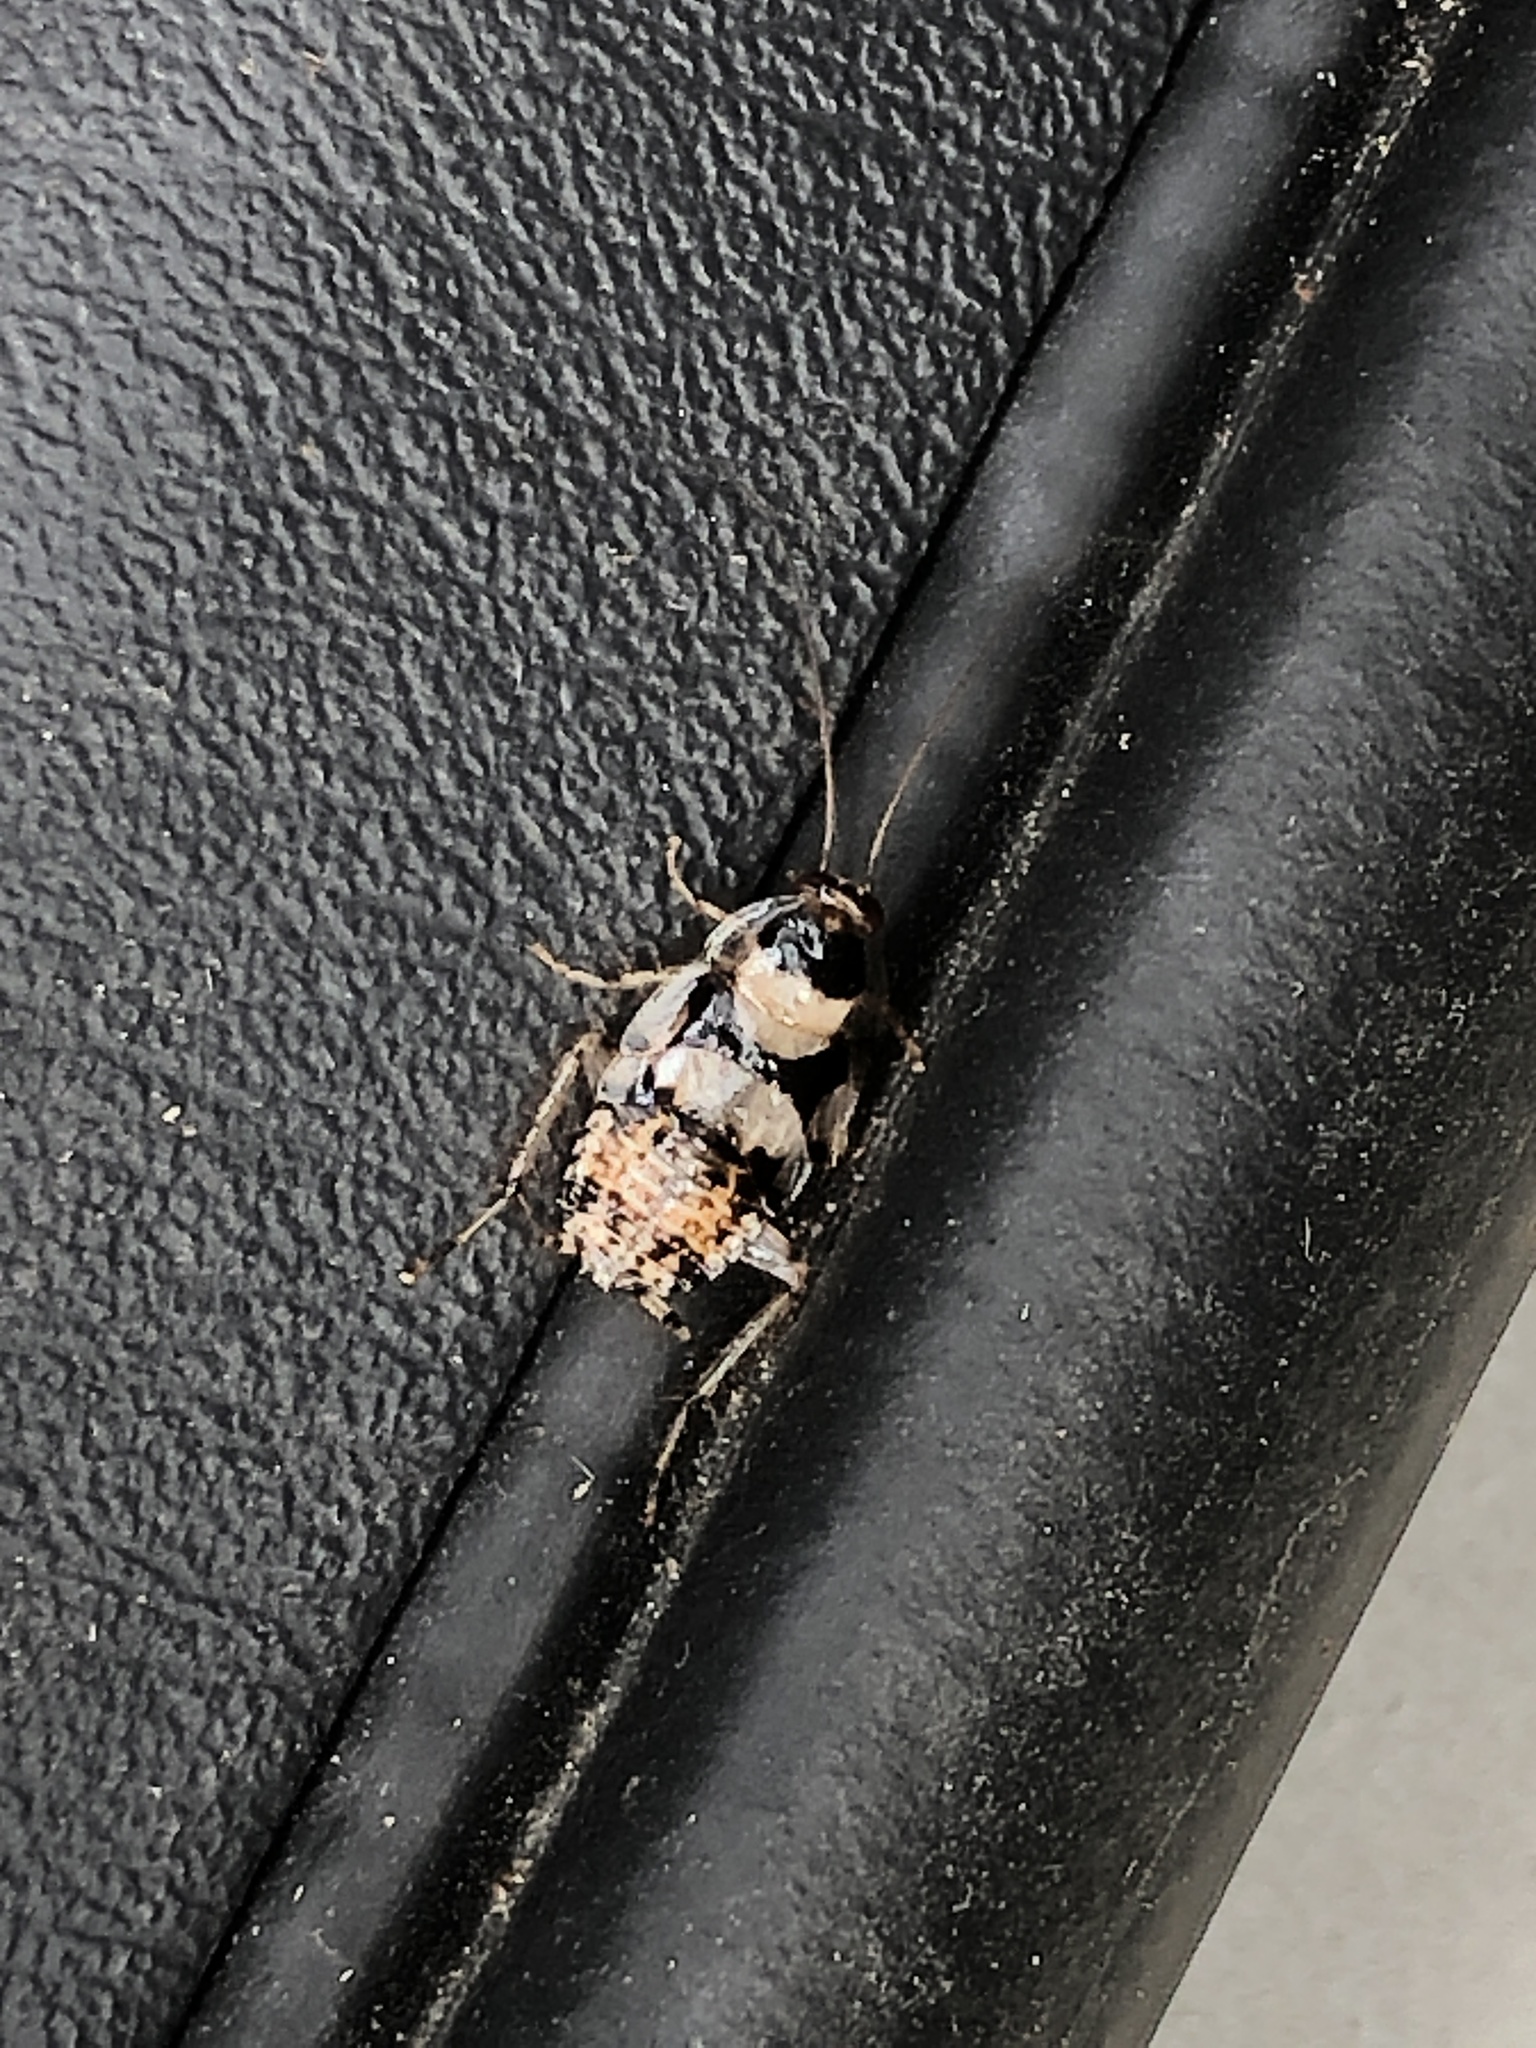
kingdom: Animalia
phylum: Arthropoda
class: Insecta
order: Blattodea
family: Ectobiidae
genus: Balta
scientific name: Balta notulata
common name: Cockroach
